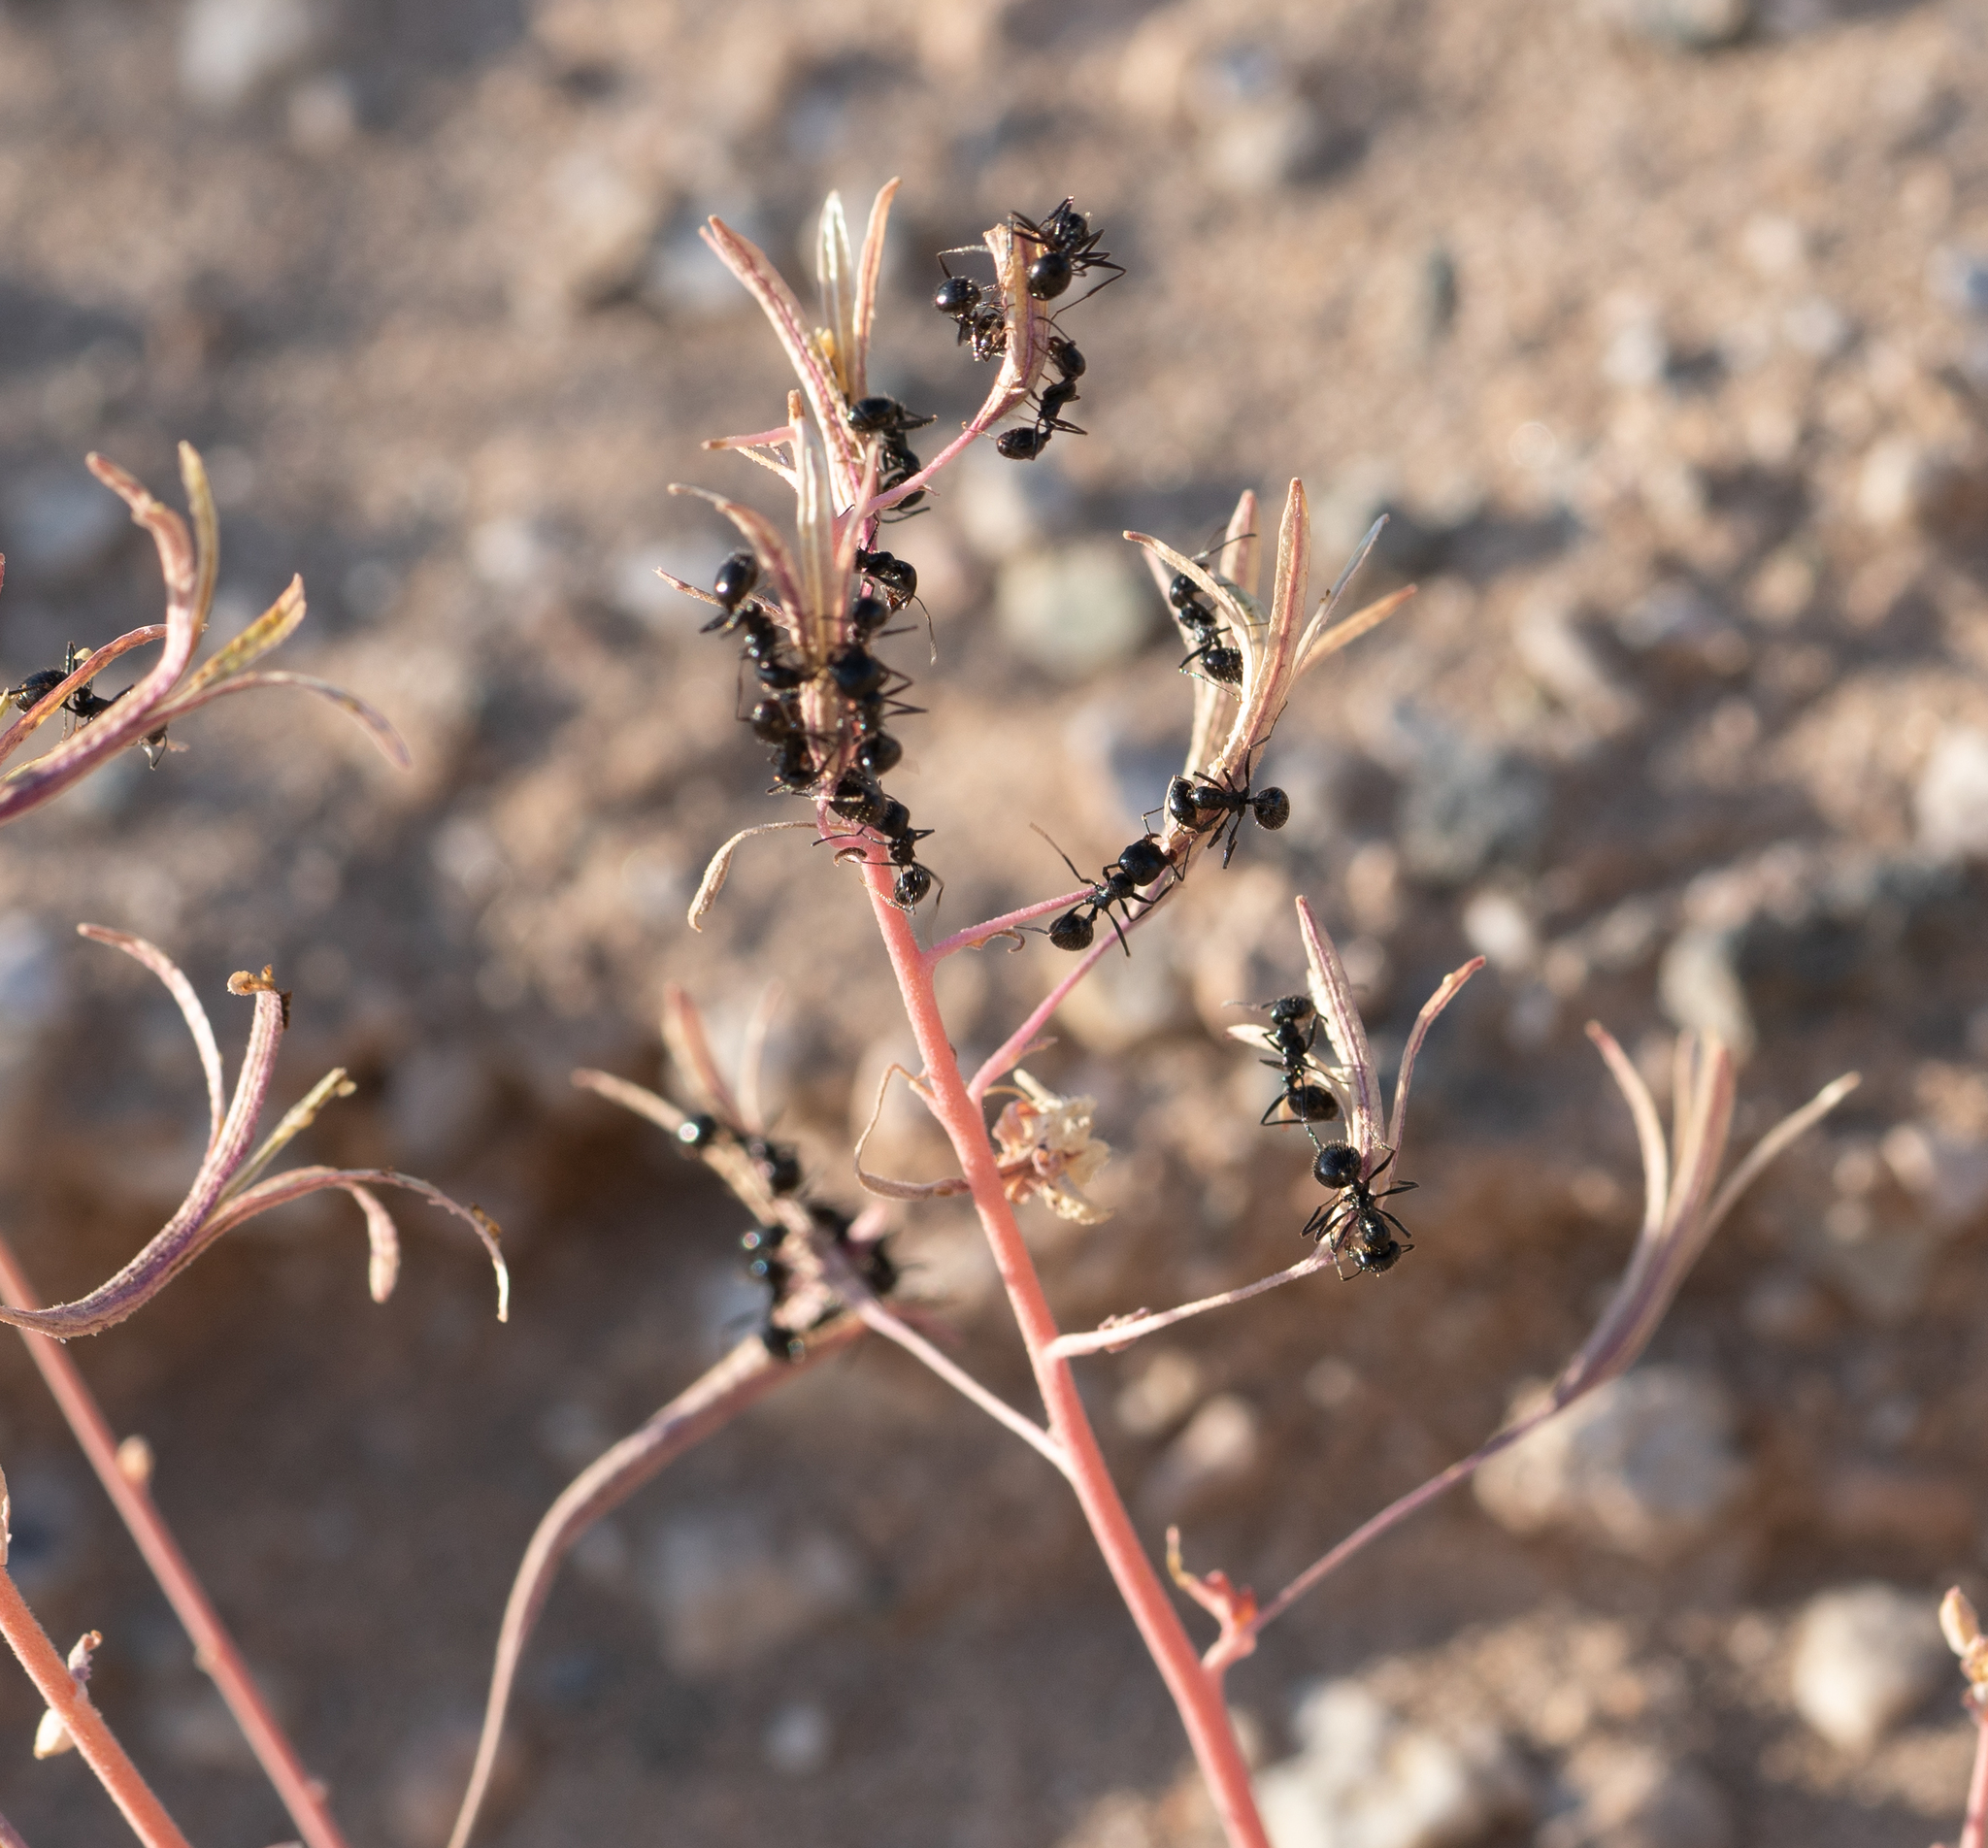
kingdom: Animalia
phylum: Arthropoda
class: Insecta
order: Hymenoptera
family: Formicidae
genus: Messor
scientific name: Messor pergandei
